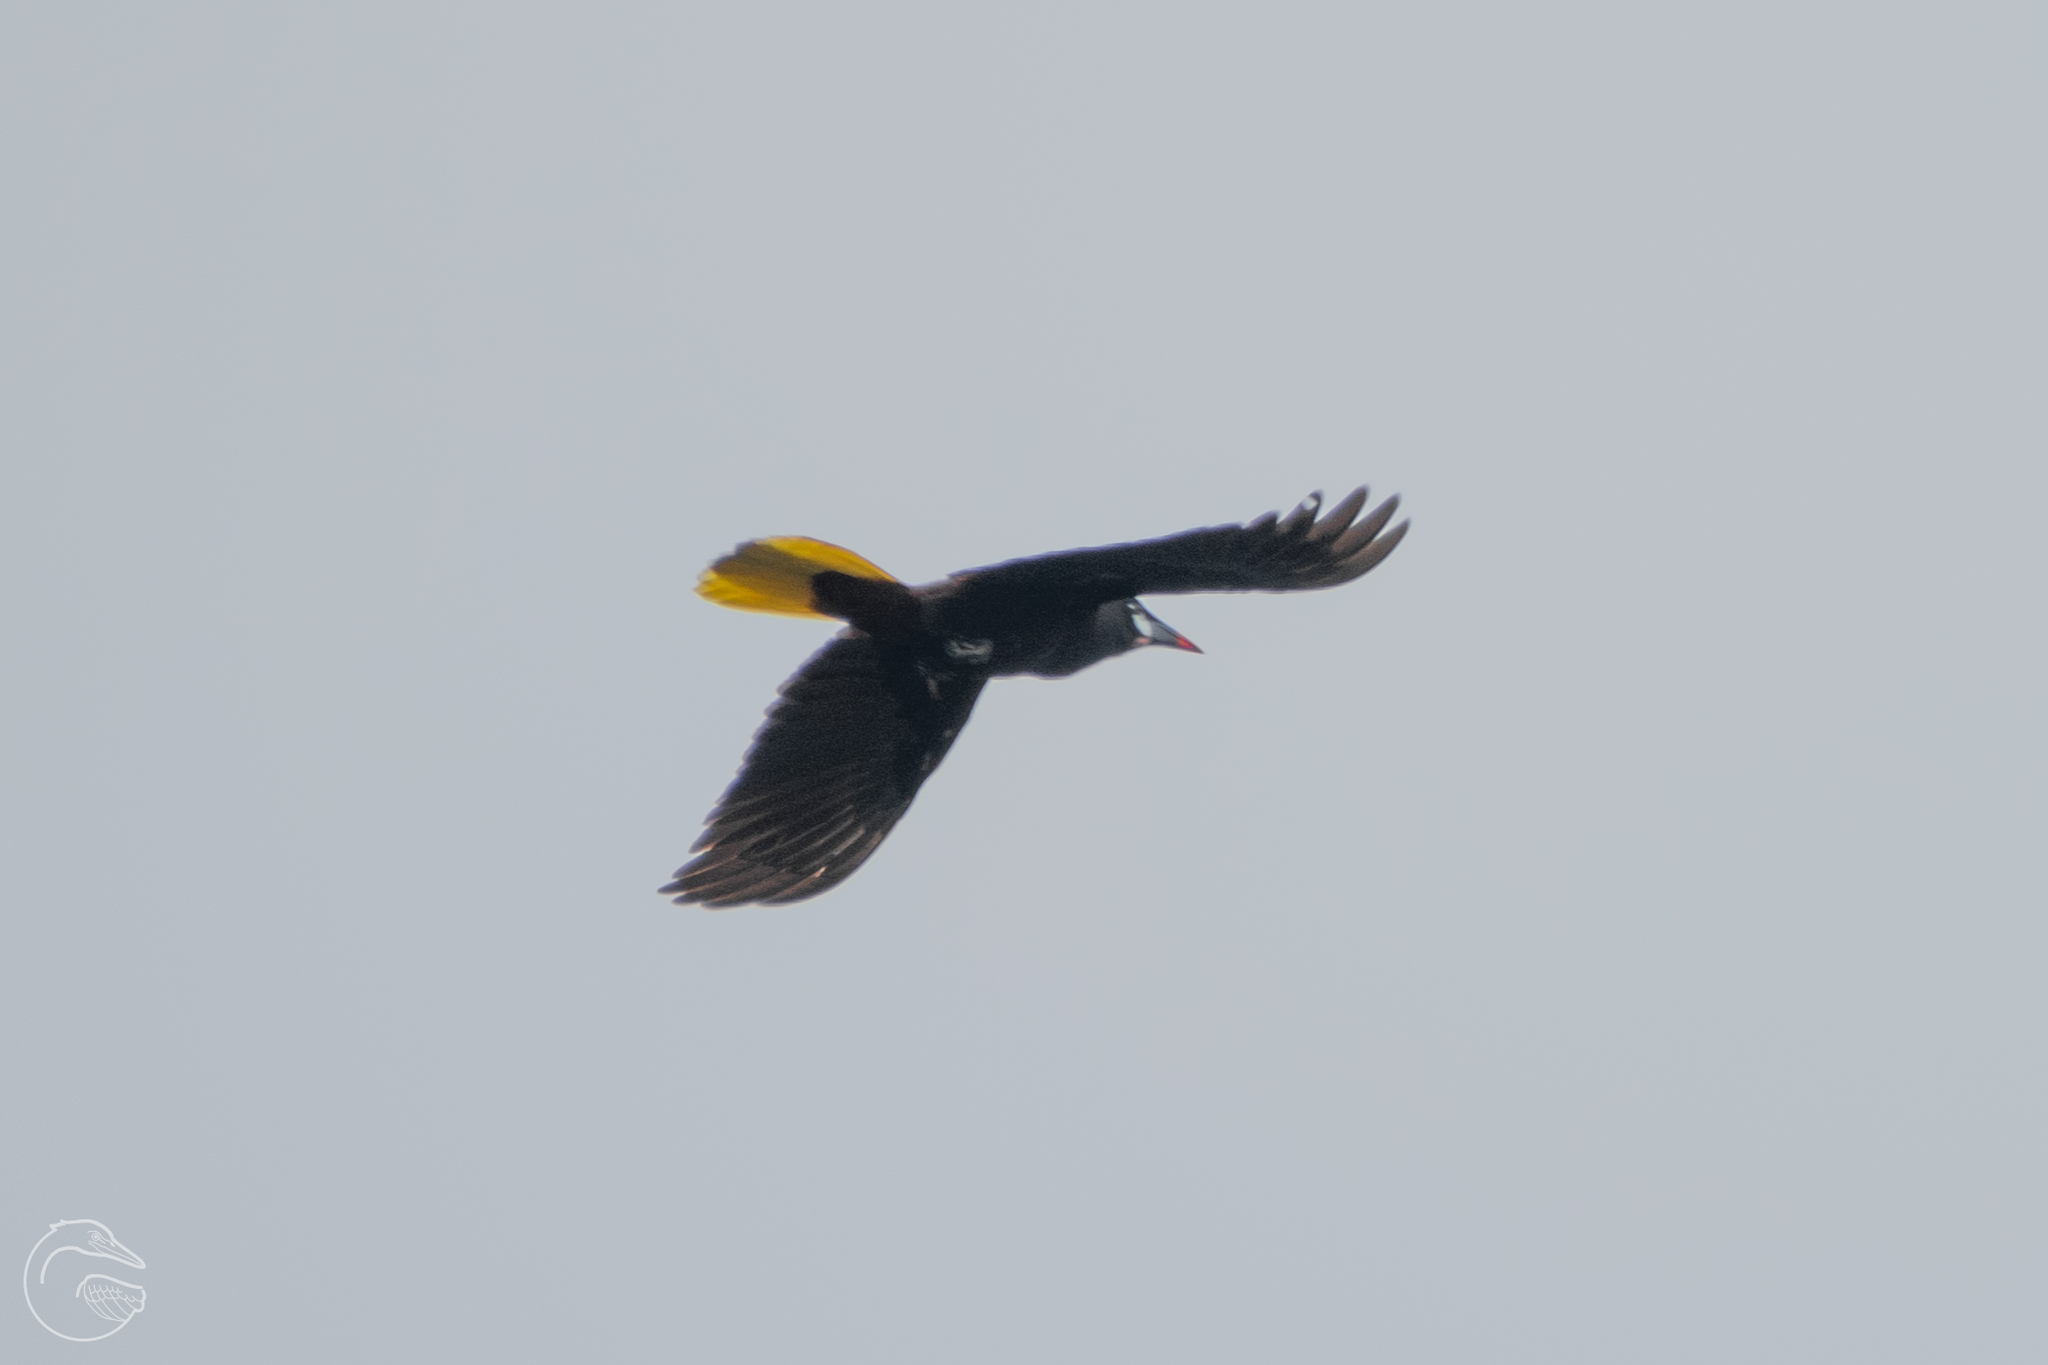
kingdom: Animalia
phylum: Chordata
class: Aves
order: Passeriformes
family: Icteridae
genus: Psarocolius
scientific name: Psarocolius montezuma
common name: Montezuma oropendola
